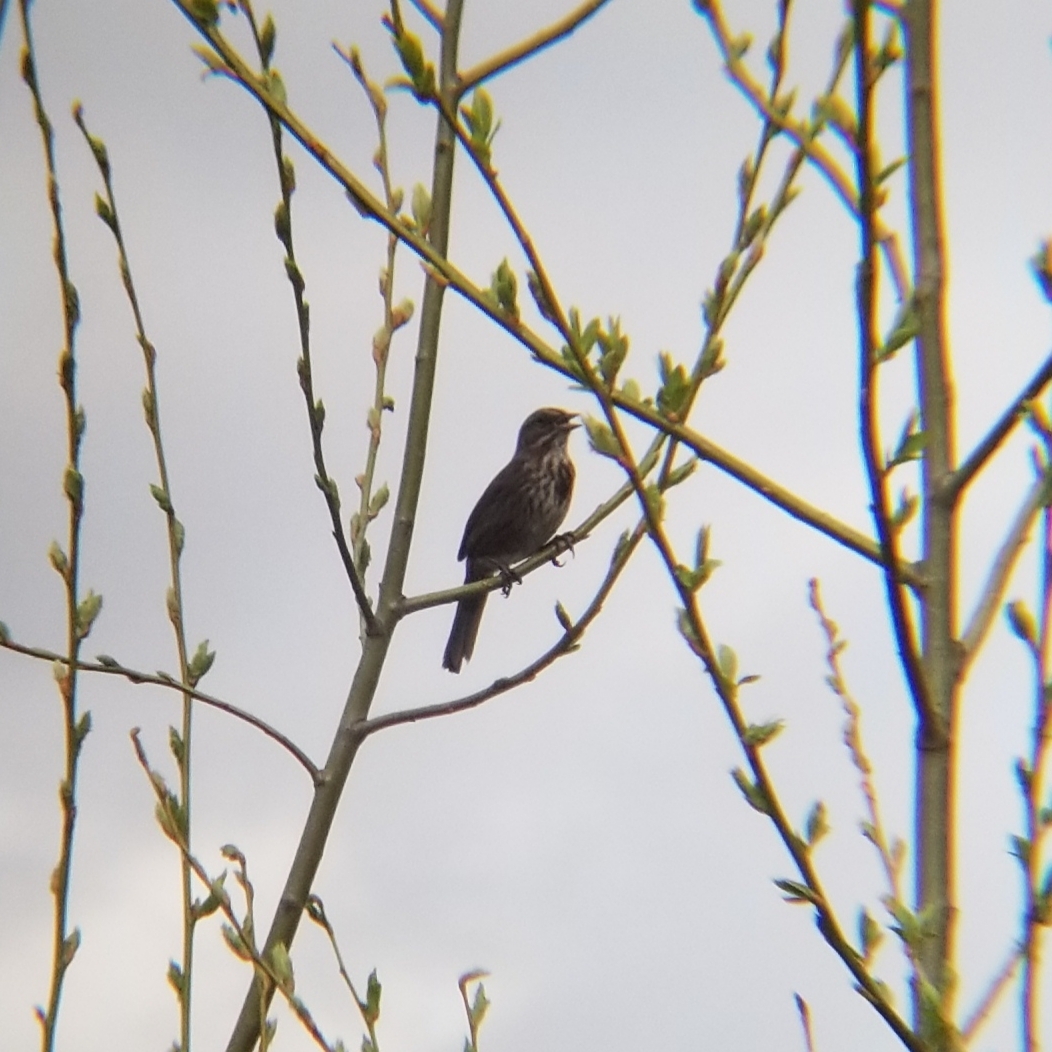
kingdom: Animalia
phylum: Chordata
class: Aves
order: Passeriformes
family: Passerellidae
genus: Melospiza
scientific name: Melospiza melodia
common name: Song sparrow
